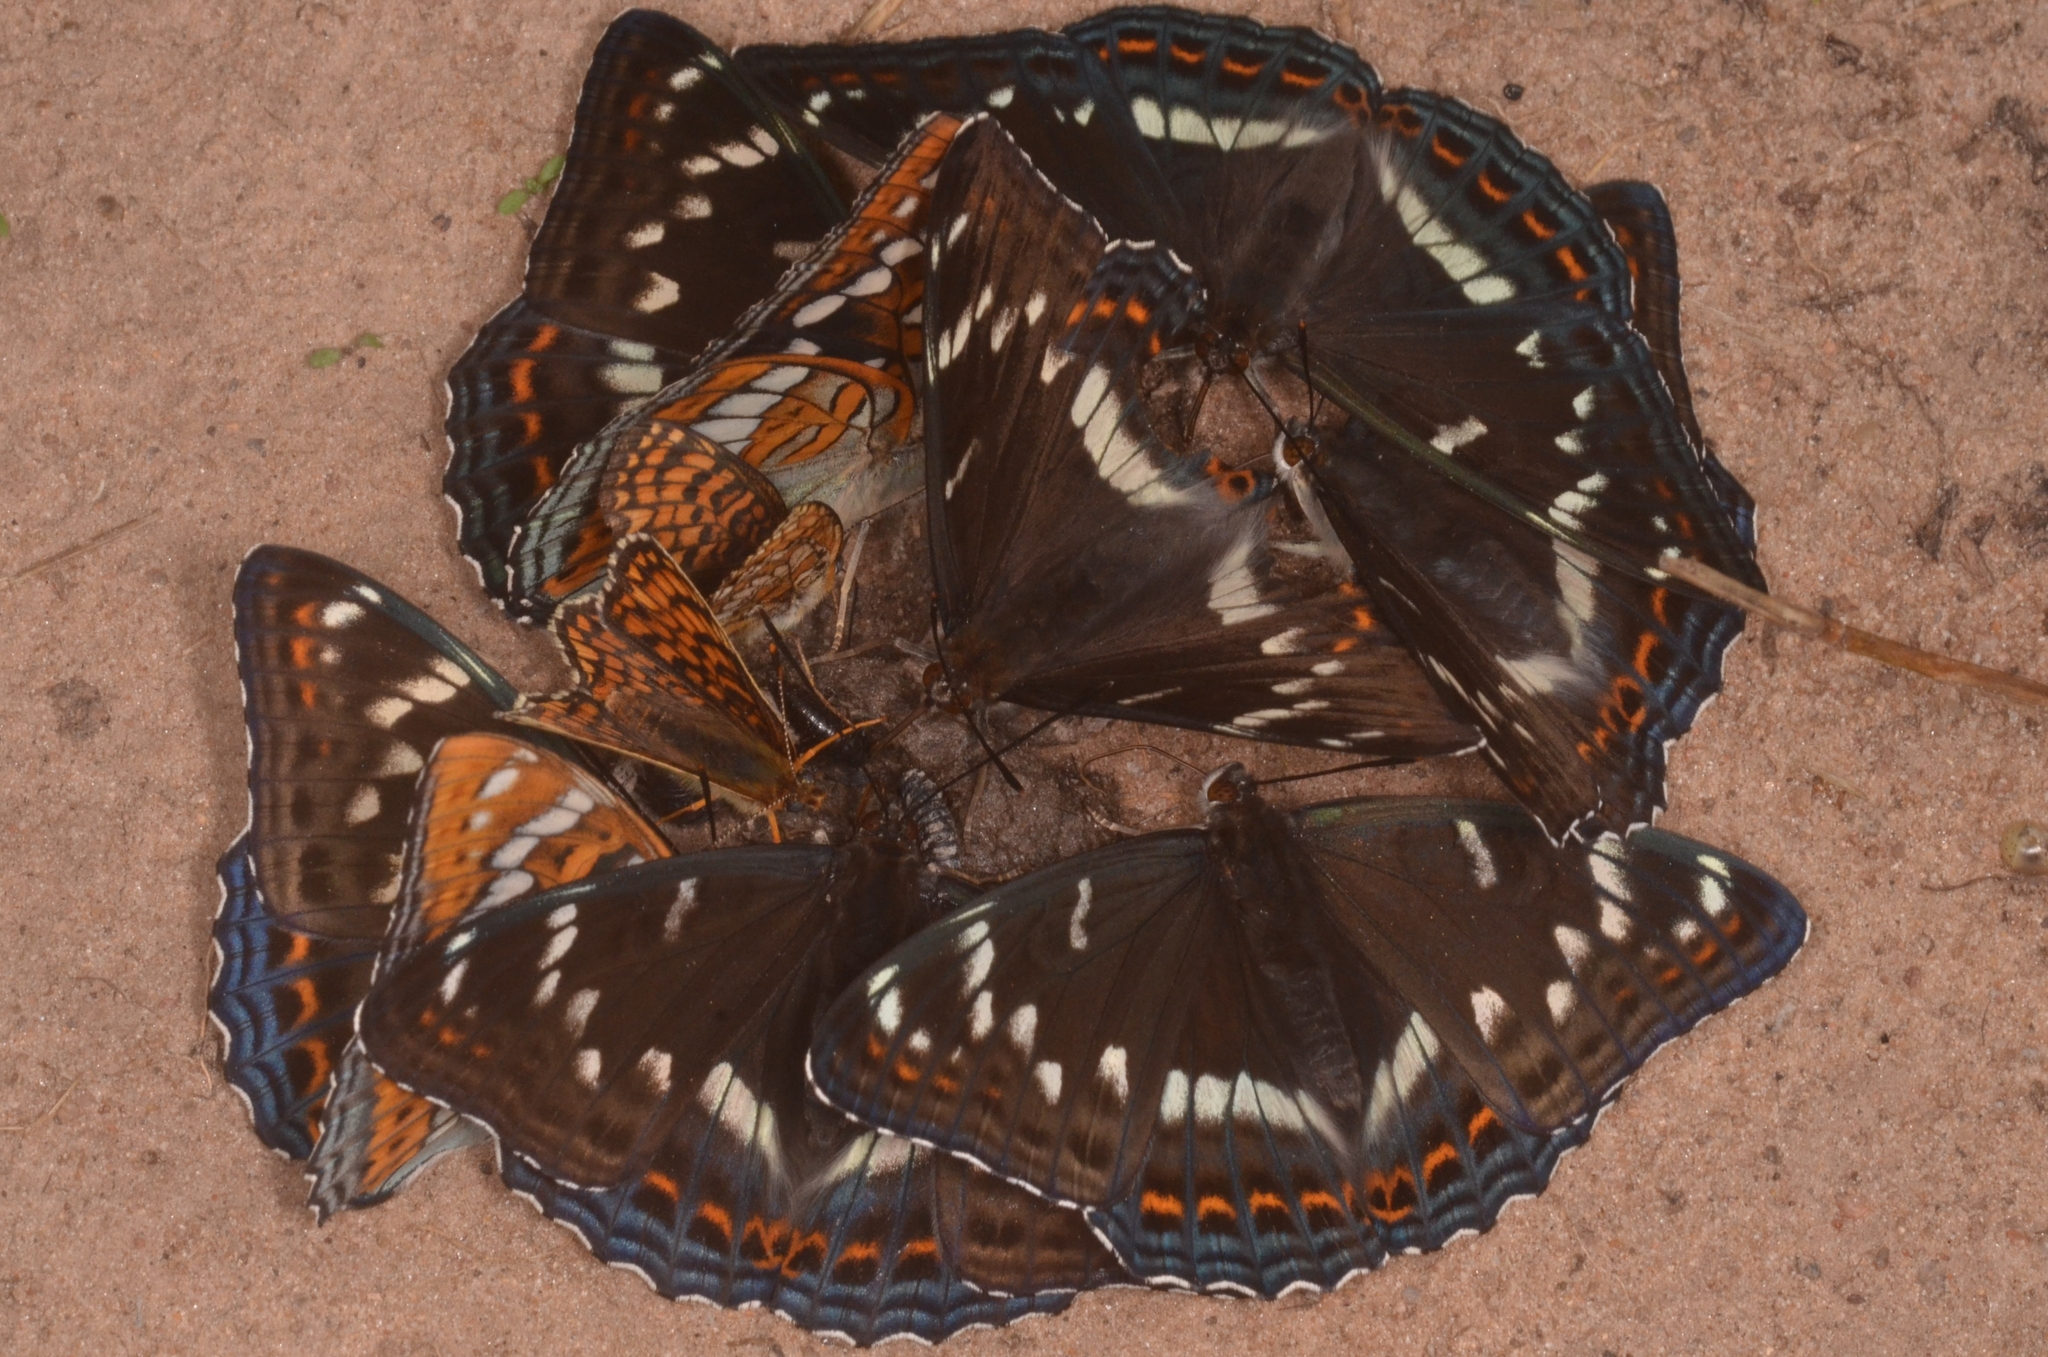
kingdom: Animalia
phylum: Arthropoda
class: Insecta
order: Lepidoptera
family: Nymphalidae
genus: Limenitis
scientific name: Limenitis populi
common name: Poplar admiral
